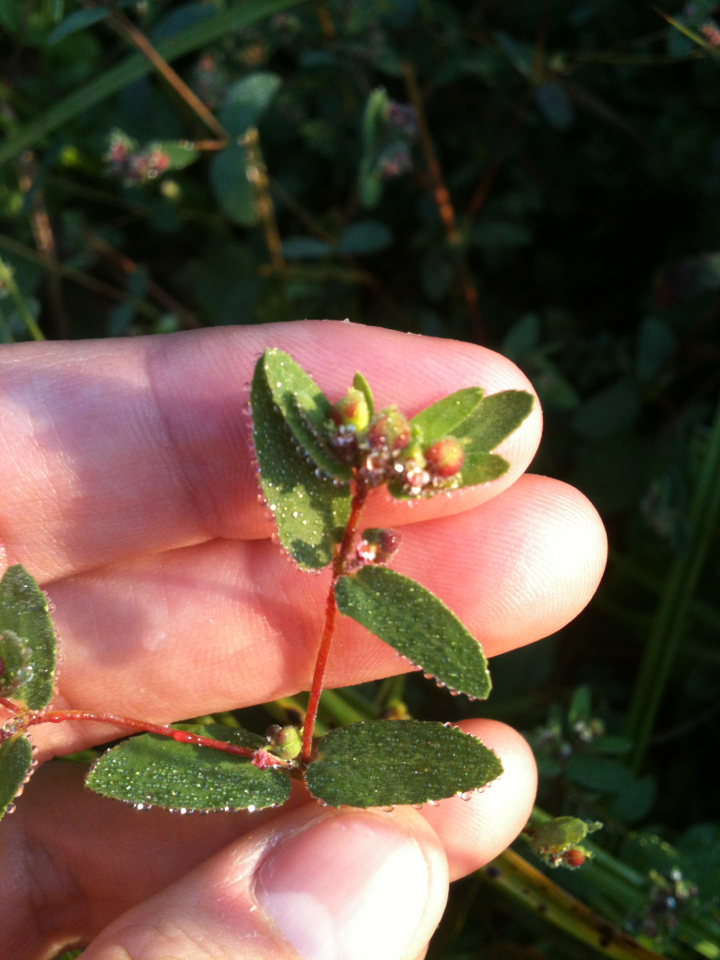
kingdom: Plantae
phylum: Tracheophyta
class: Magnoliopsida
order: Malpighiales
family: Euphorbiaceae
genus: Euphorbia
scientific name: Euphorbia nutans
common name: Eyebane
